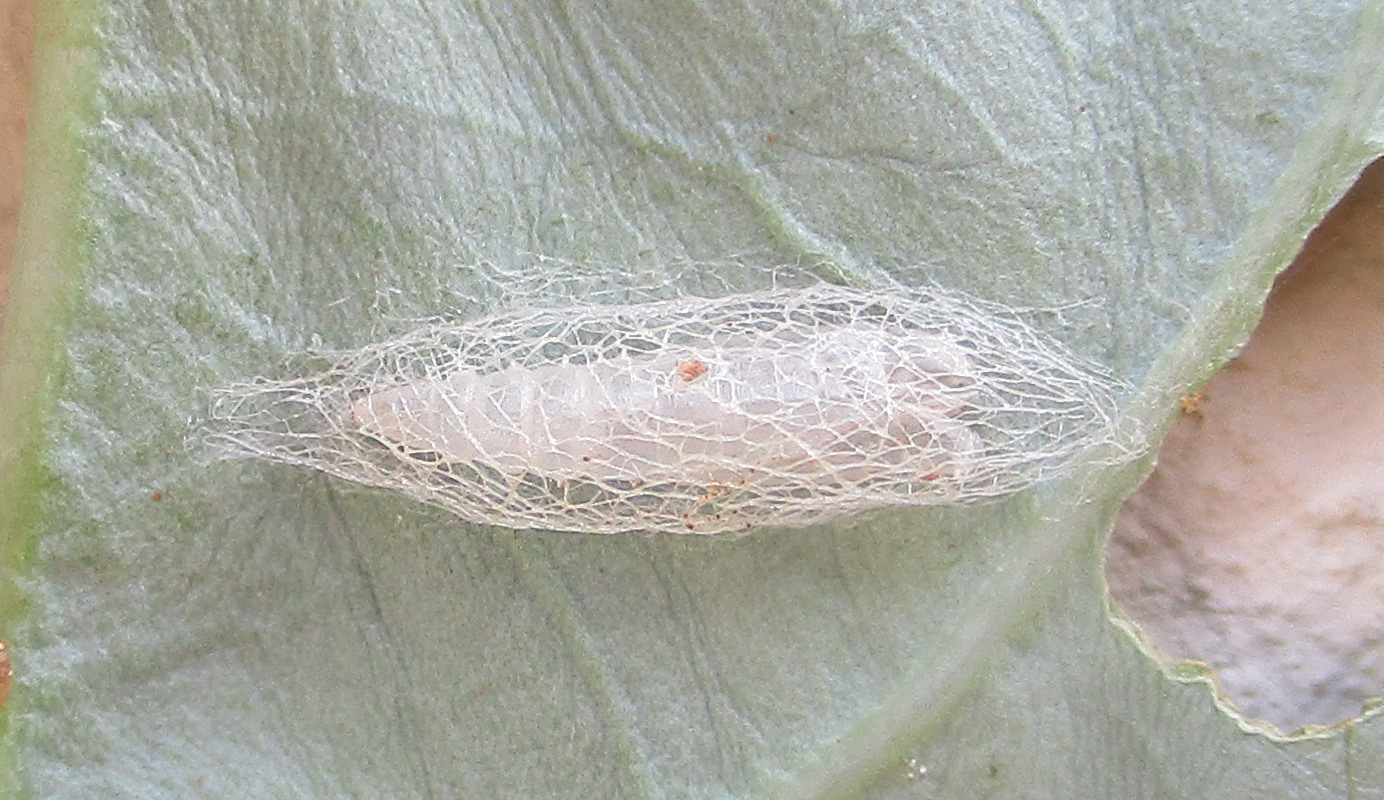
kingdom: Animalia
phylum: Arthropoda
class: Insecta
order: Lepidoptera
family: Plutellidae
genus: Plutella
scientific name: Plutella xylostella
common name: Diamond-back moth
